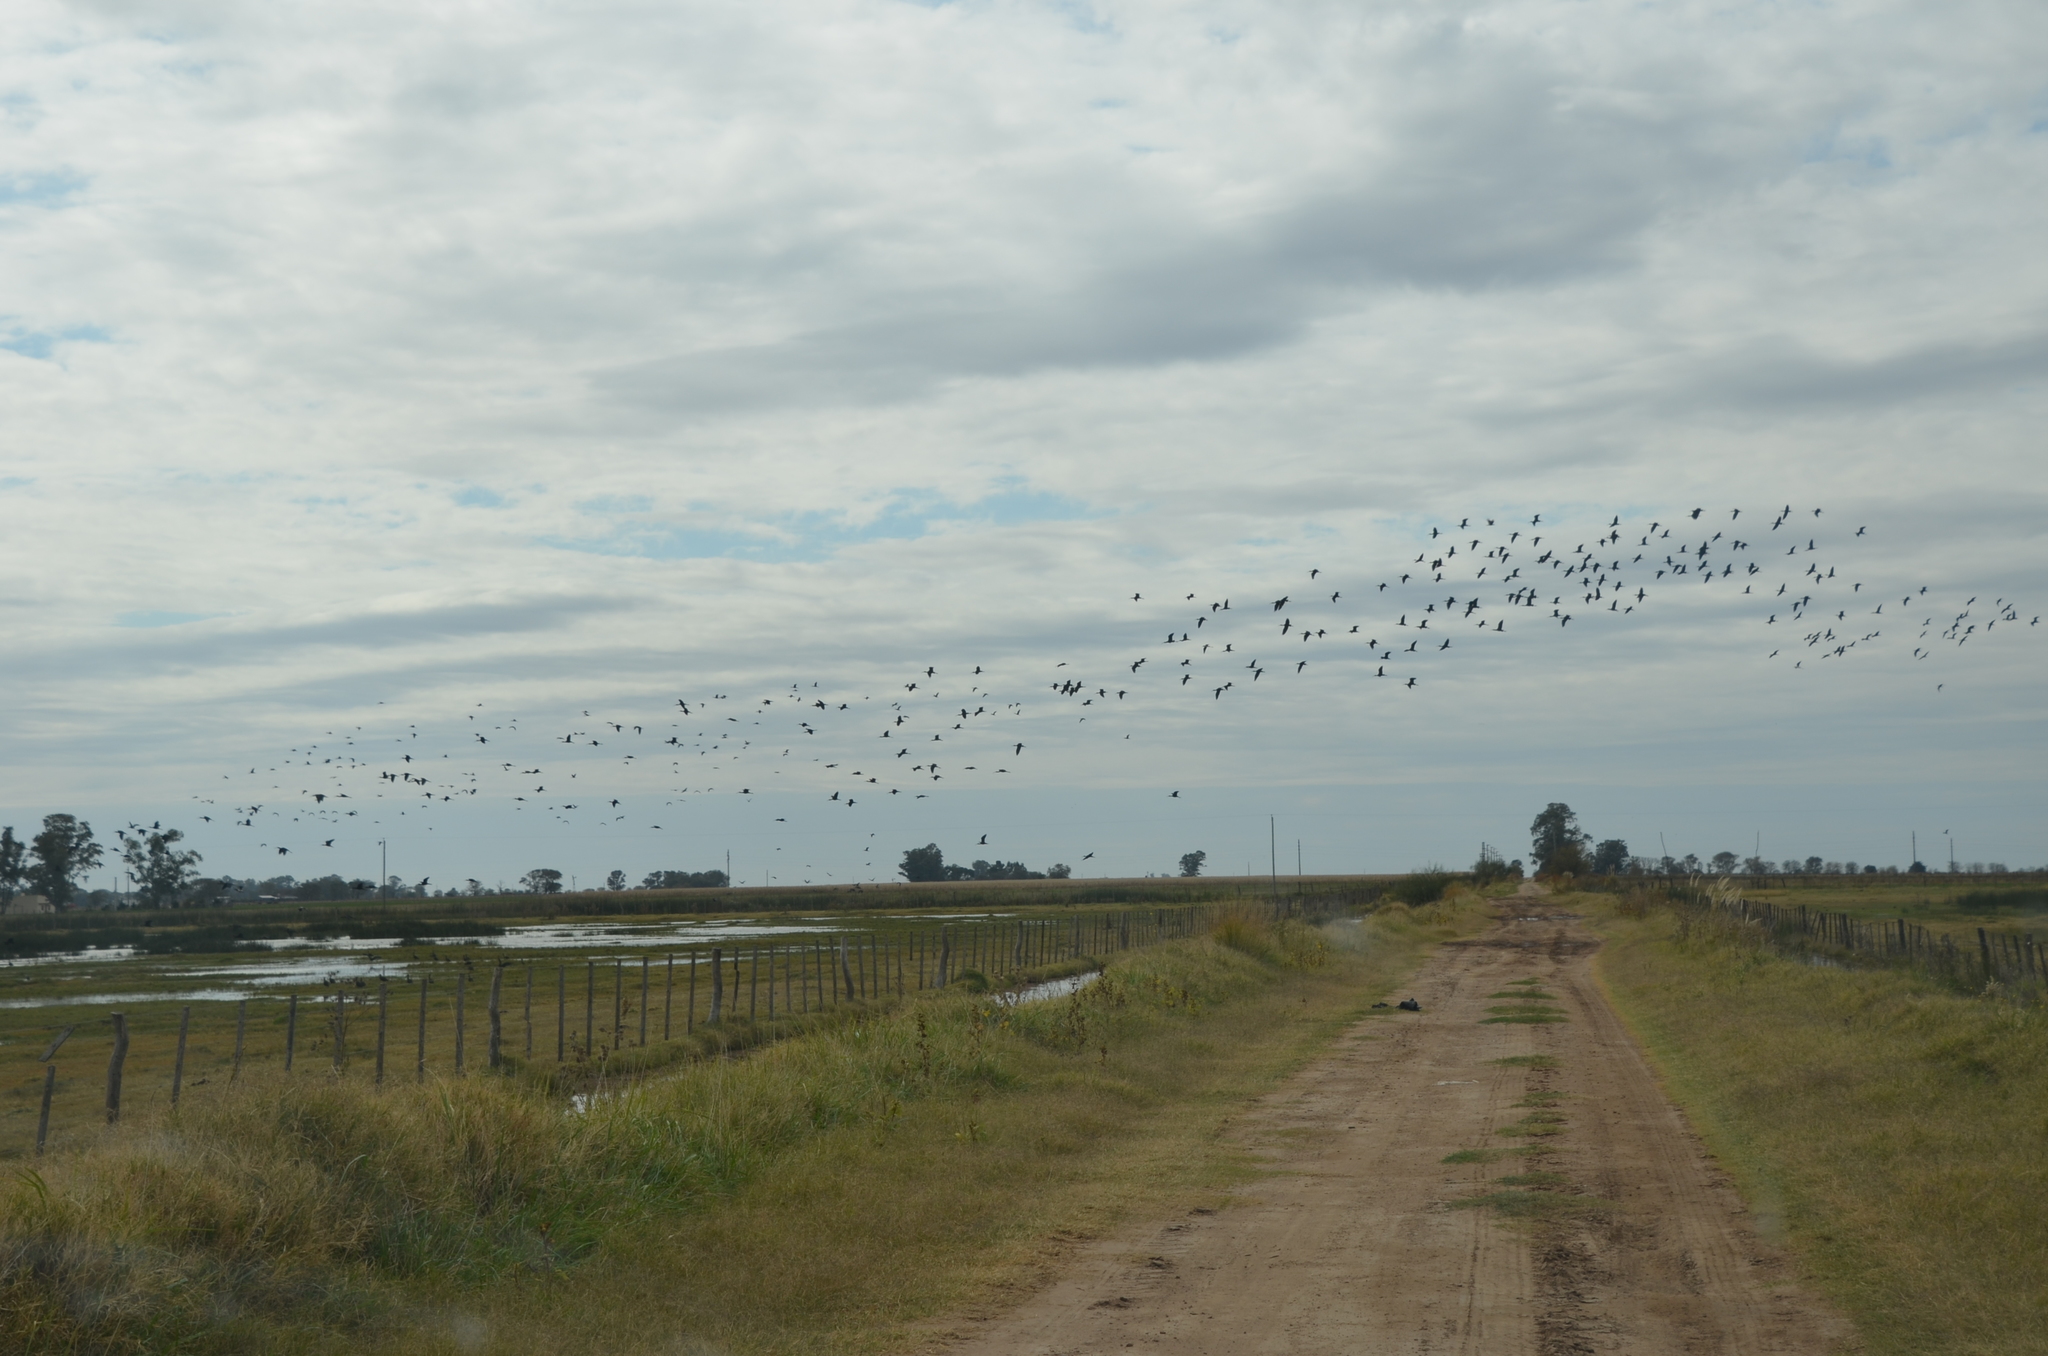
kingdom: Animalia
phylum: Chordata
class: Aves
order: Pelecaniformes
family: Threskiornithidae
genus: Plegadis
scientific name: Plegadis chihi
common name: White-faced ibis
